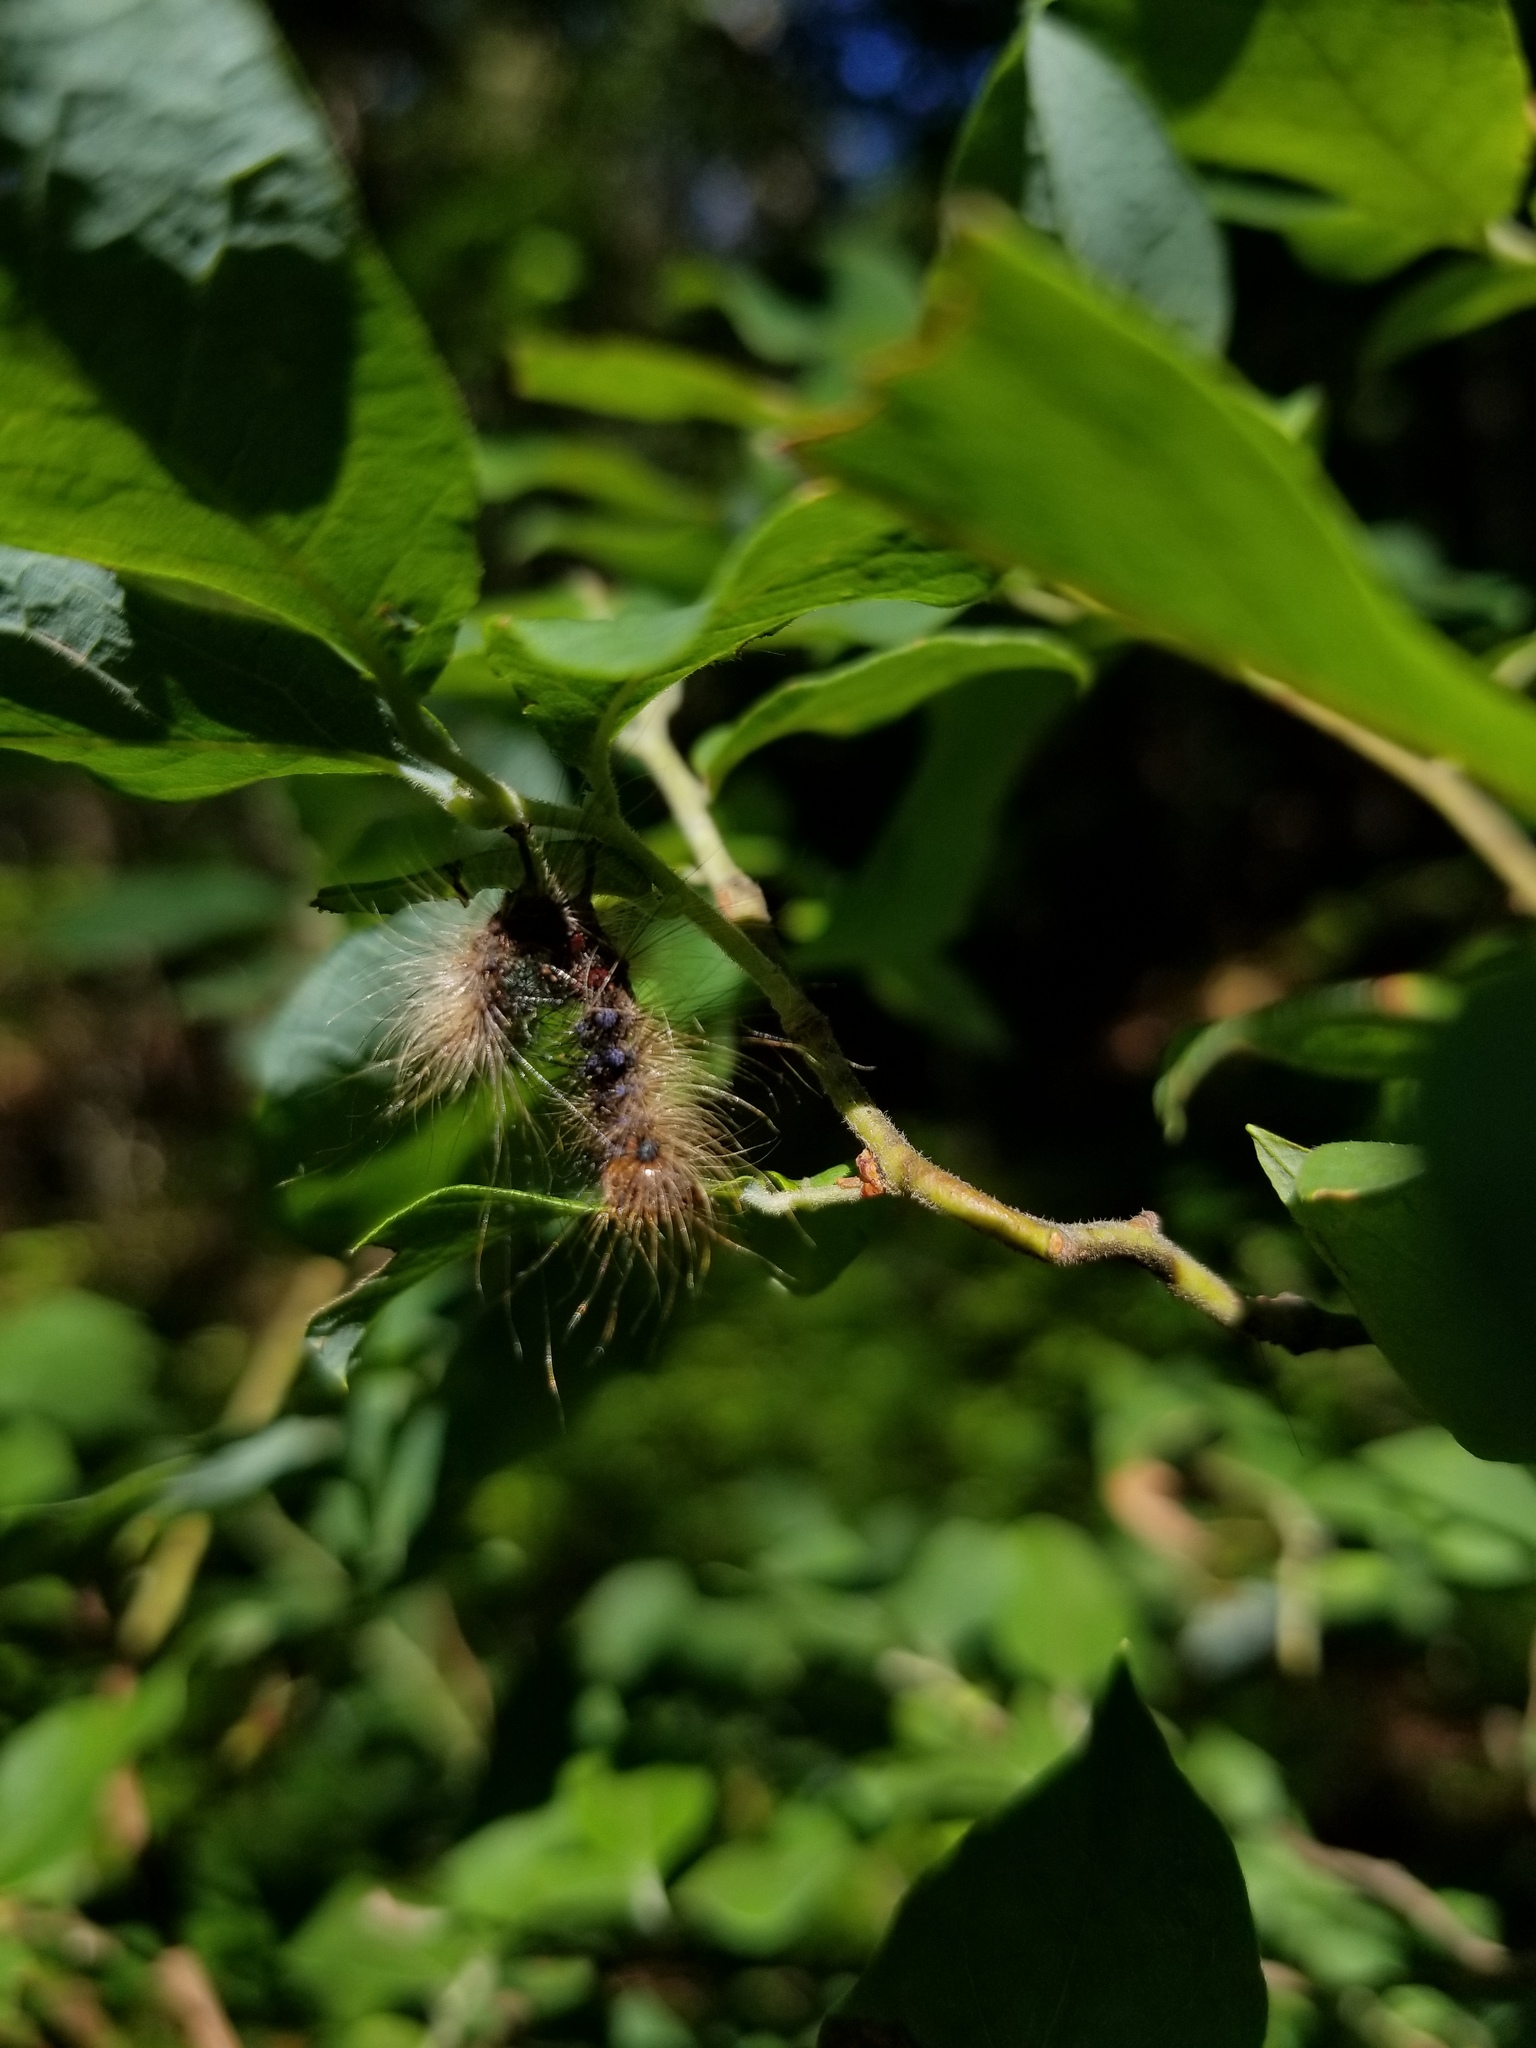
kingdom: Animalia
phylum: Arthropoda
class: Insecta
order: Lepidoptera
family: Erebidae
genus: Lymantria
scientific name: Lymantria dispar
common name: Gypsy moth
